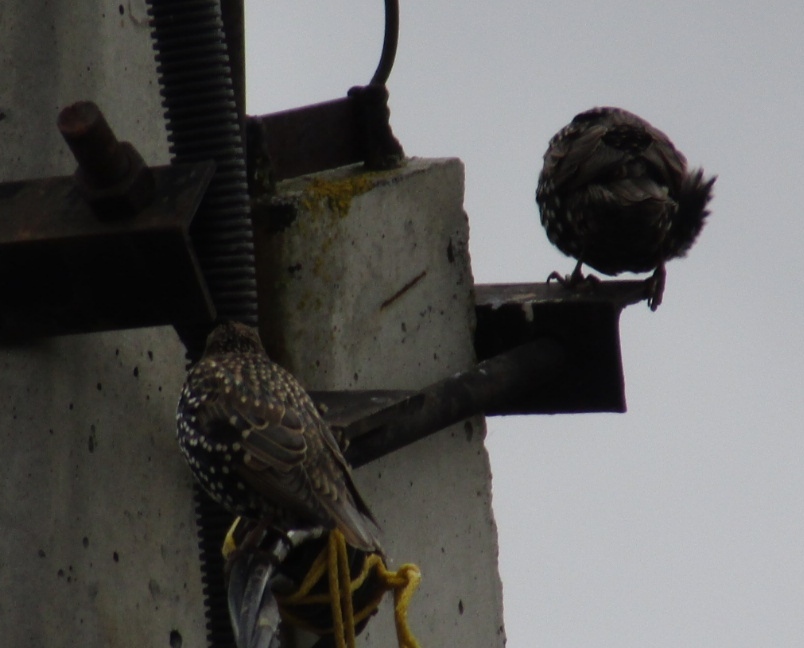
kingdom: Animalia
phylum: Chordata
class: Aves
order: Passeriformes
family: Sturnidae
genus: Sturnus
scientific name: Sturnus vulgaris
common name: Common starling
